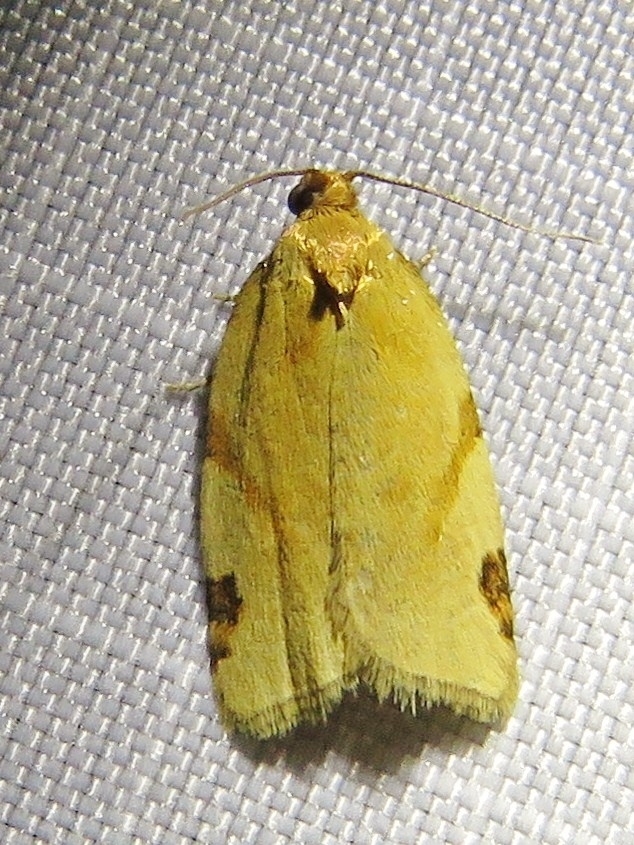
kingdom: Animalia
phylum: Arthropoda
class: Insecta
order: Lepidoptera
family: Tortricidae
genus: Paramesia
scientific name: Paramesia gnomana
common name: Small straw twist
